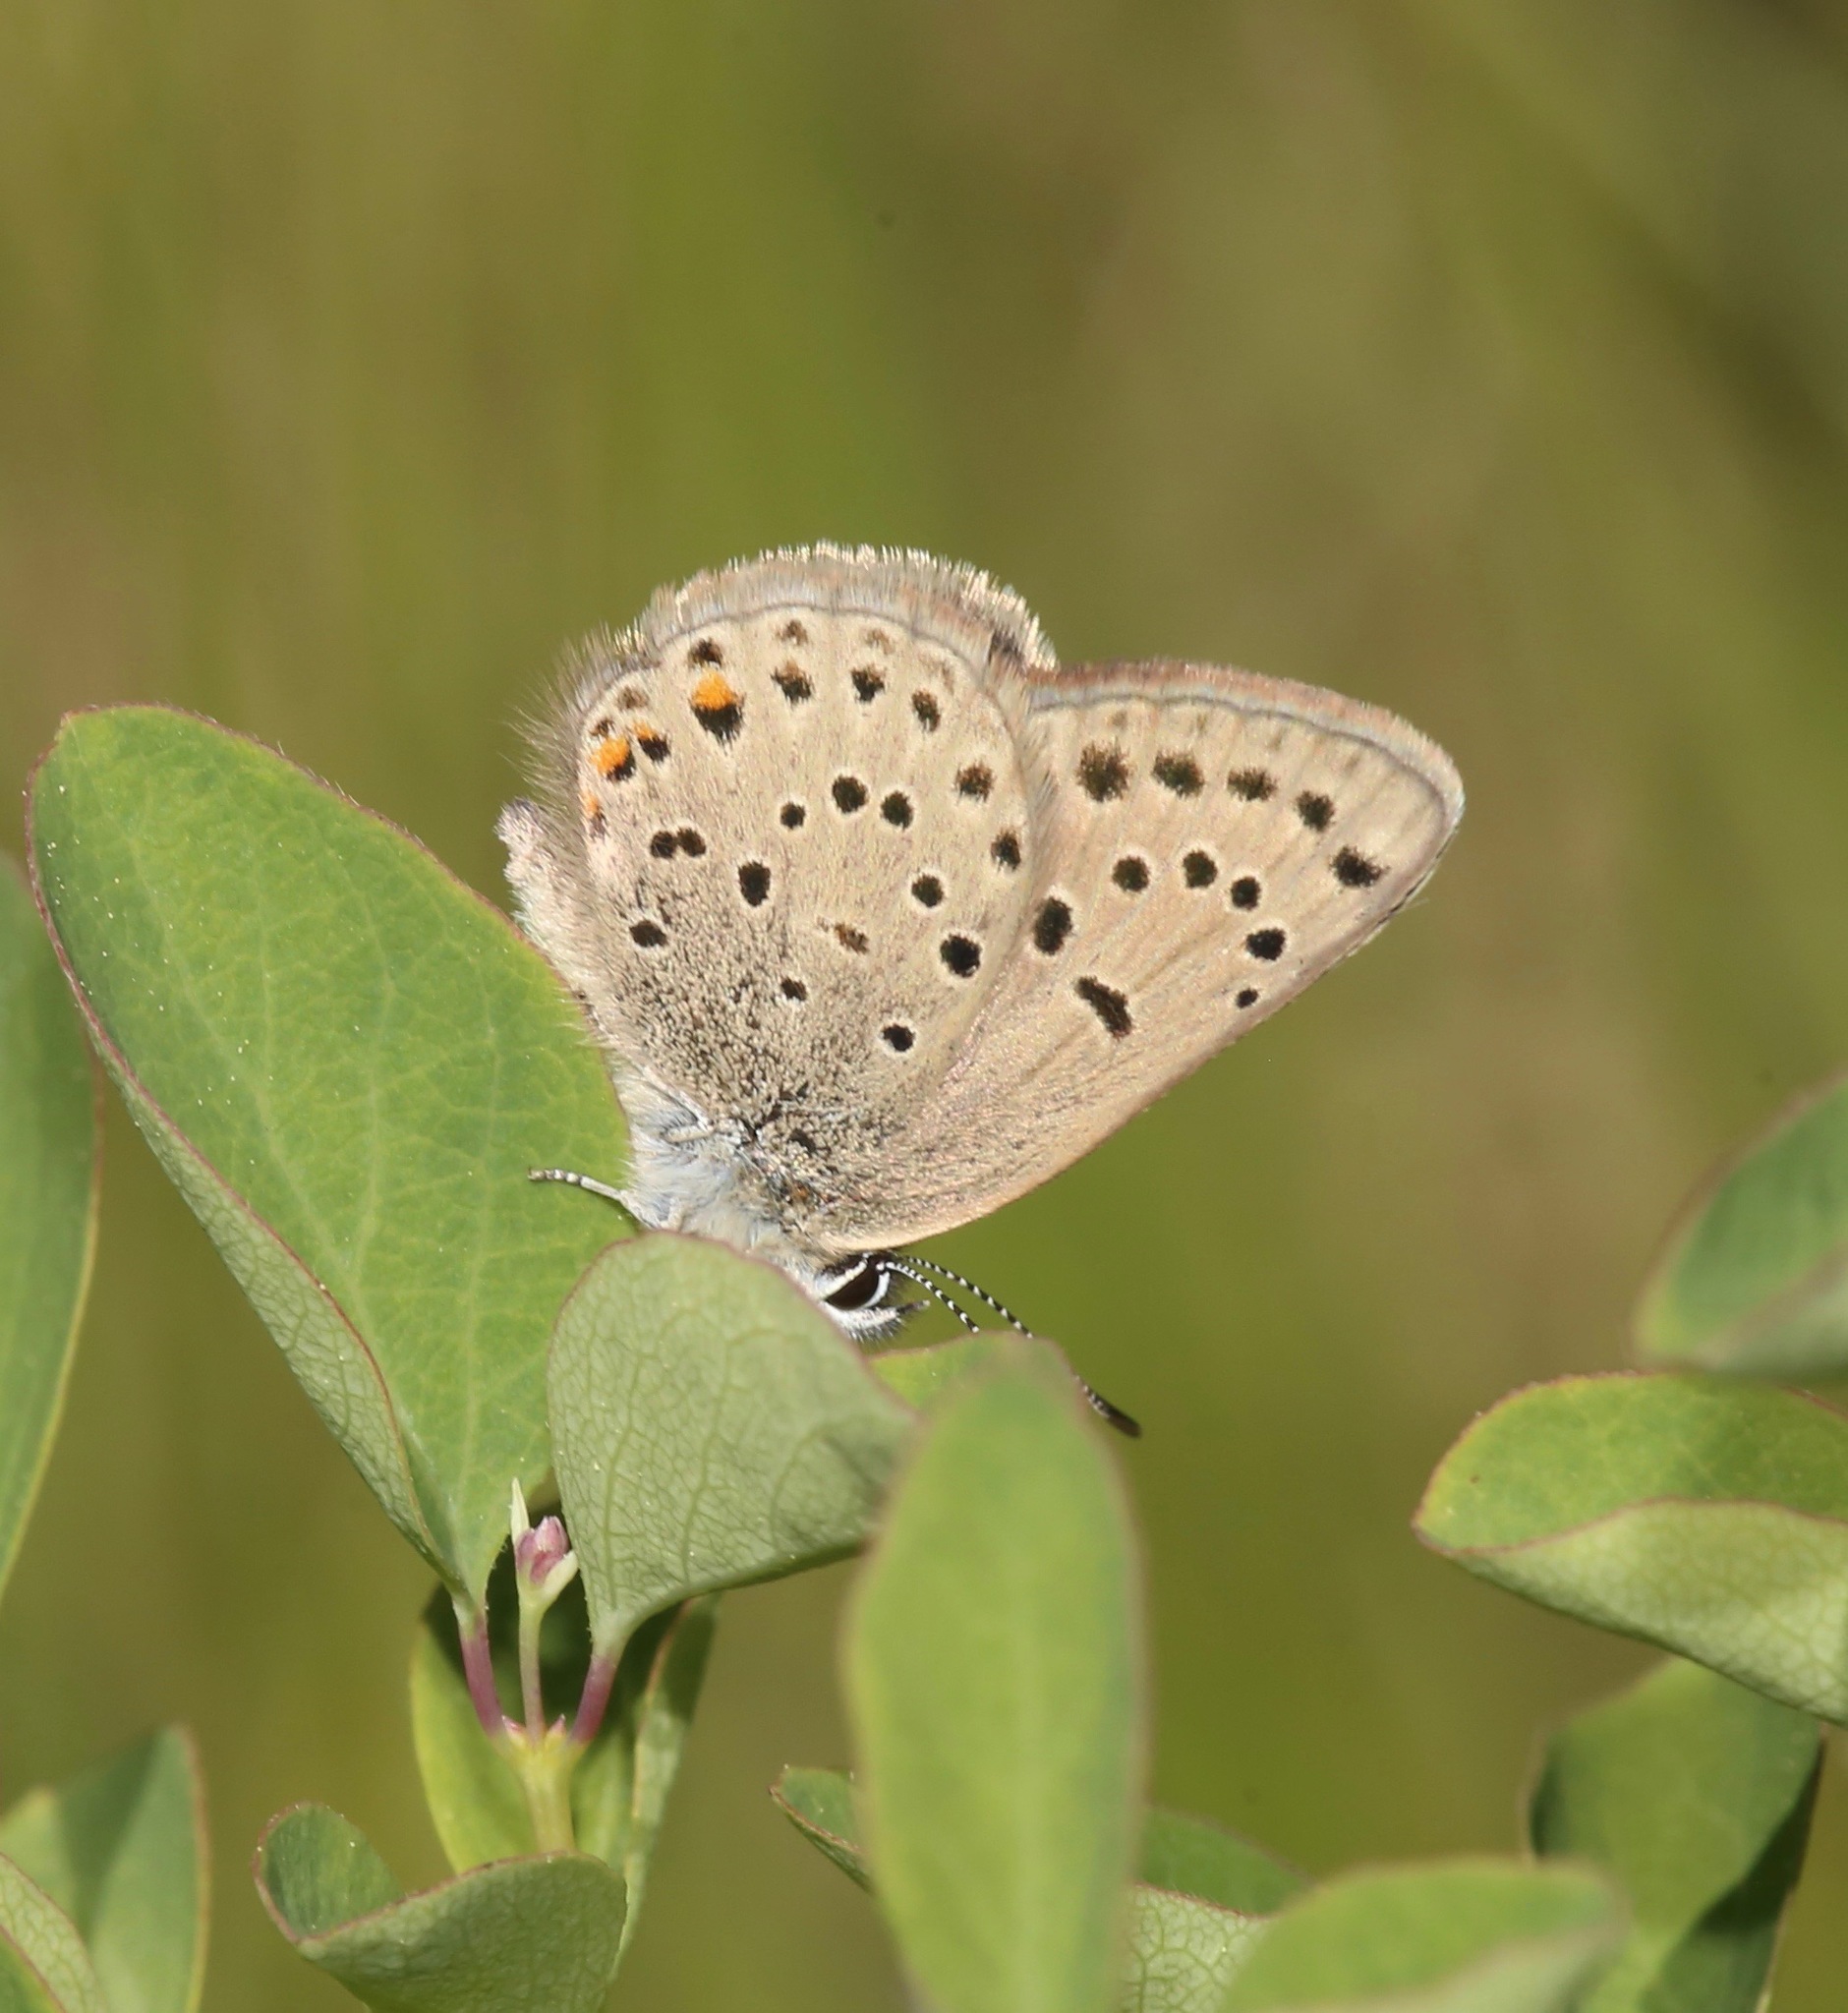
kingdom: Animalia
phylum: Arthropoda
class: Insecta
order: Lepidoptera
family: Lycaenidae
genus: Icaricia
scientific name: Icaricia saepiolus
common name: Greenish blue
